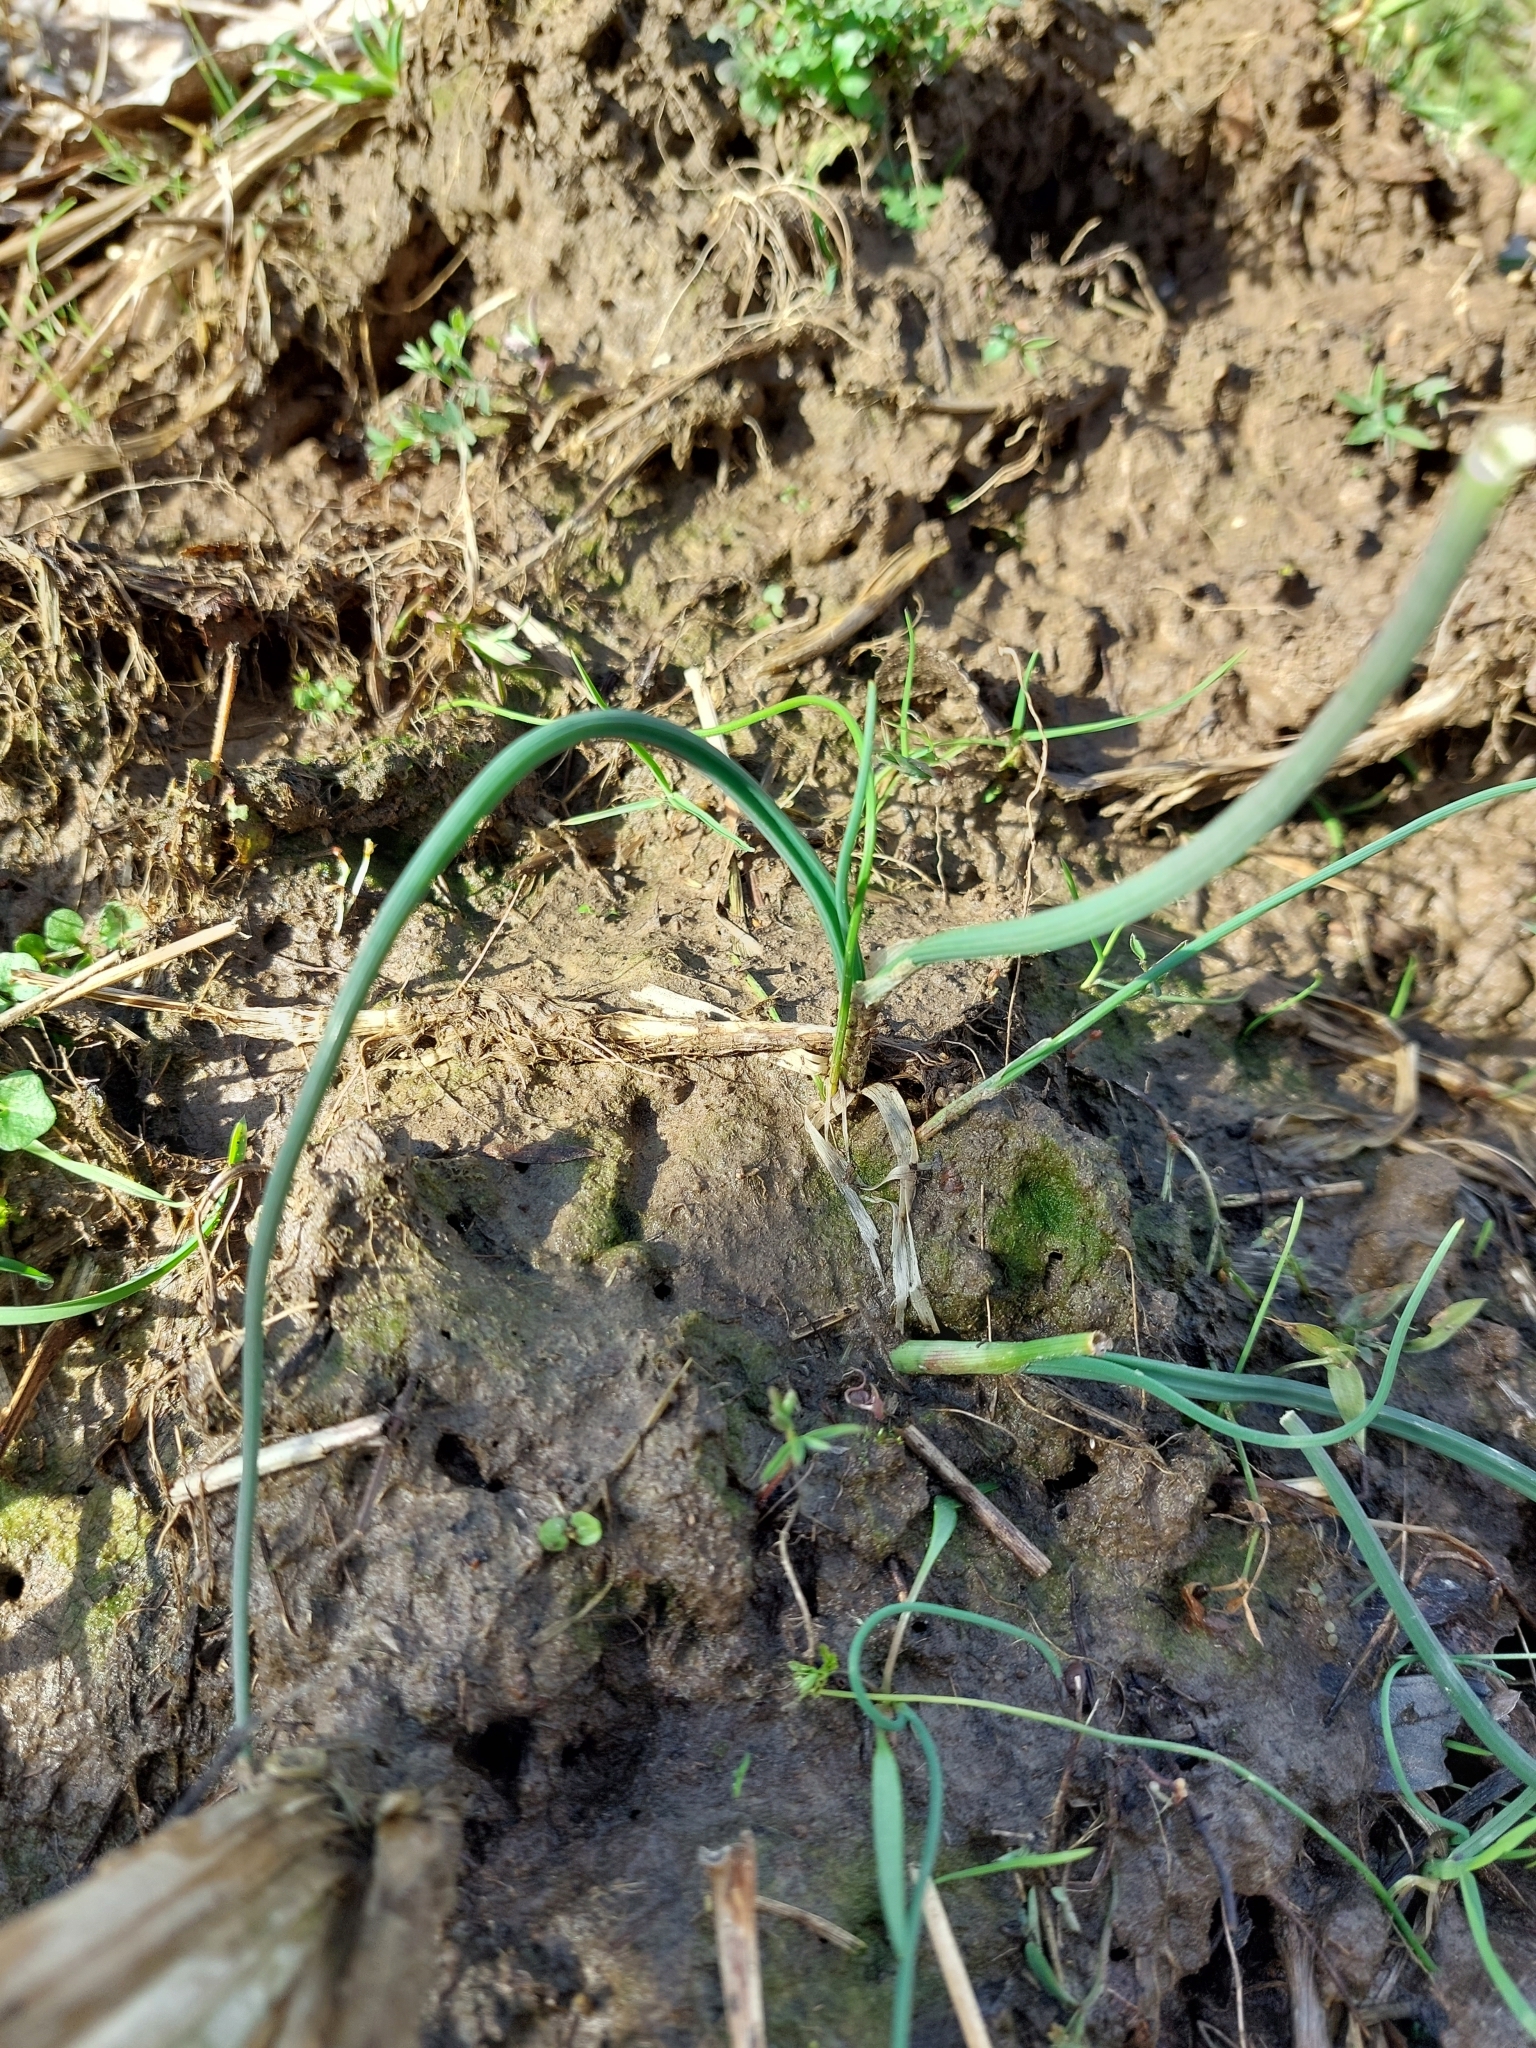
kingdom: Plantae
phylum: Tracheophyta
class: Liliopsida
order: Asparagales
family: Amaryllidaceae
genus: Allium
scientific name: Allium vineale
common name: Crow garlic
